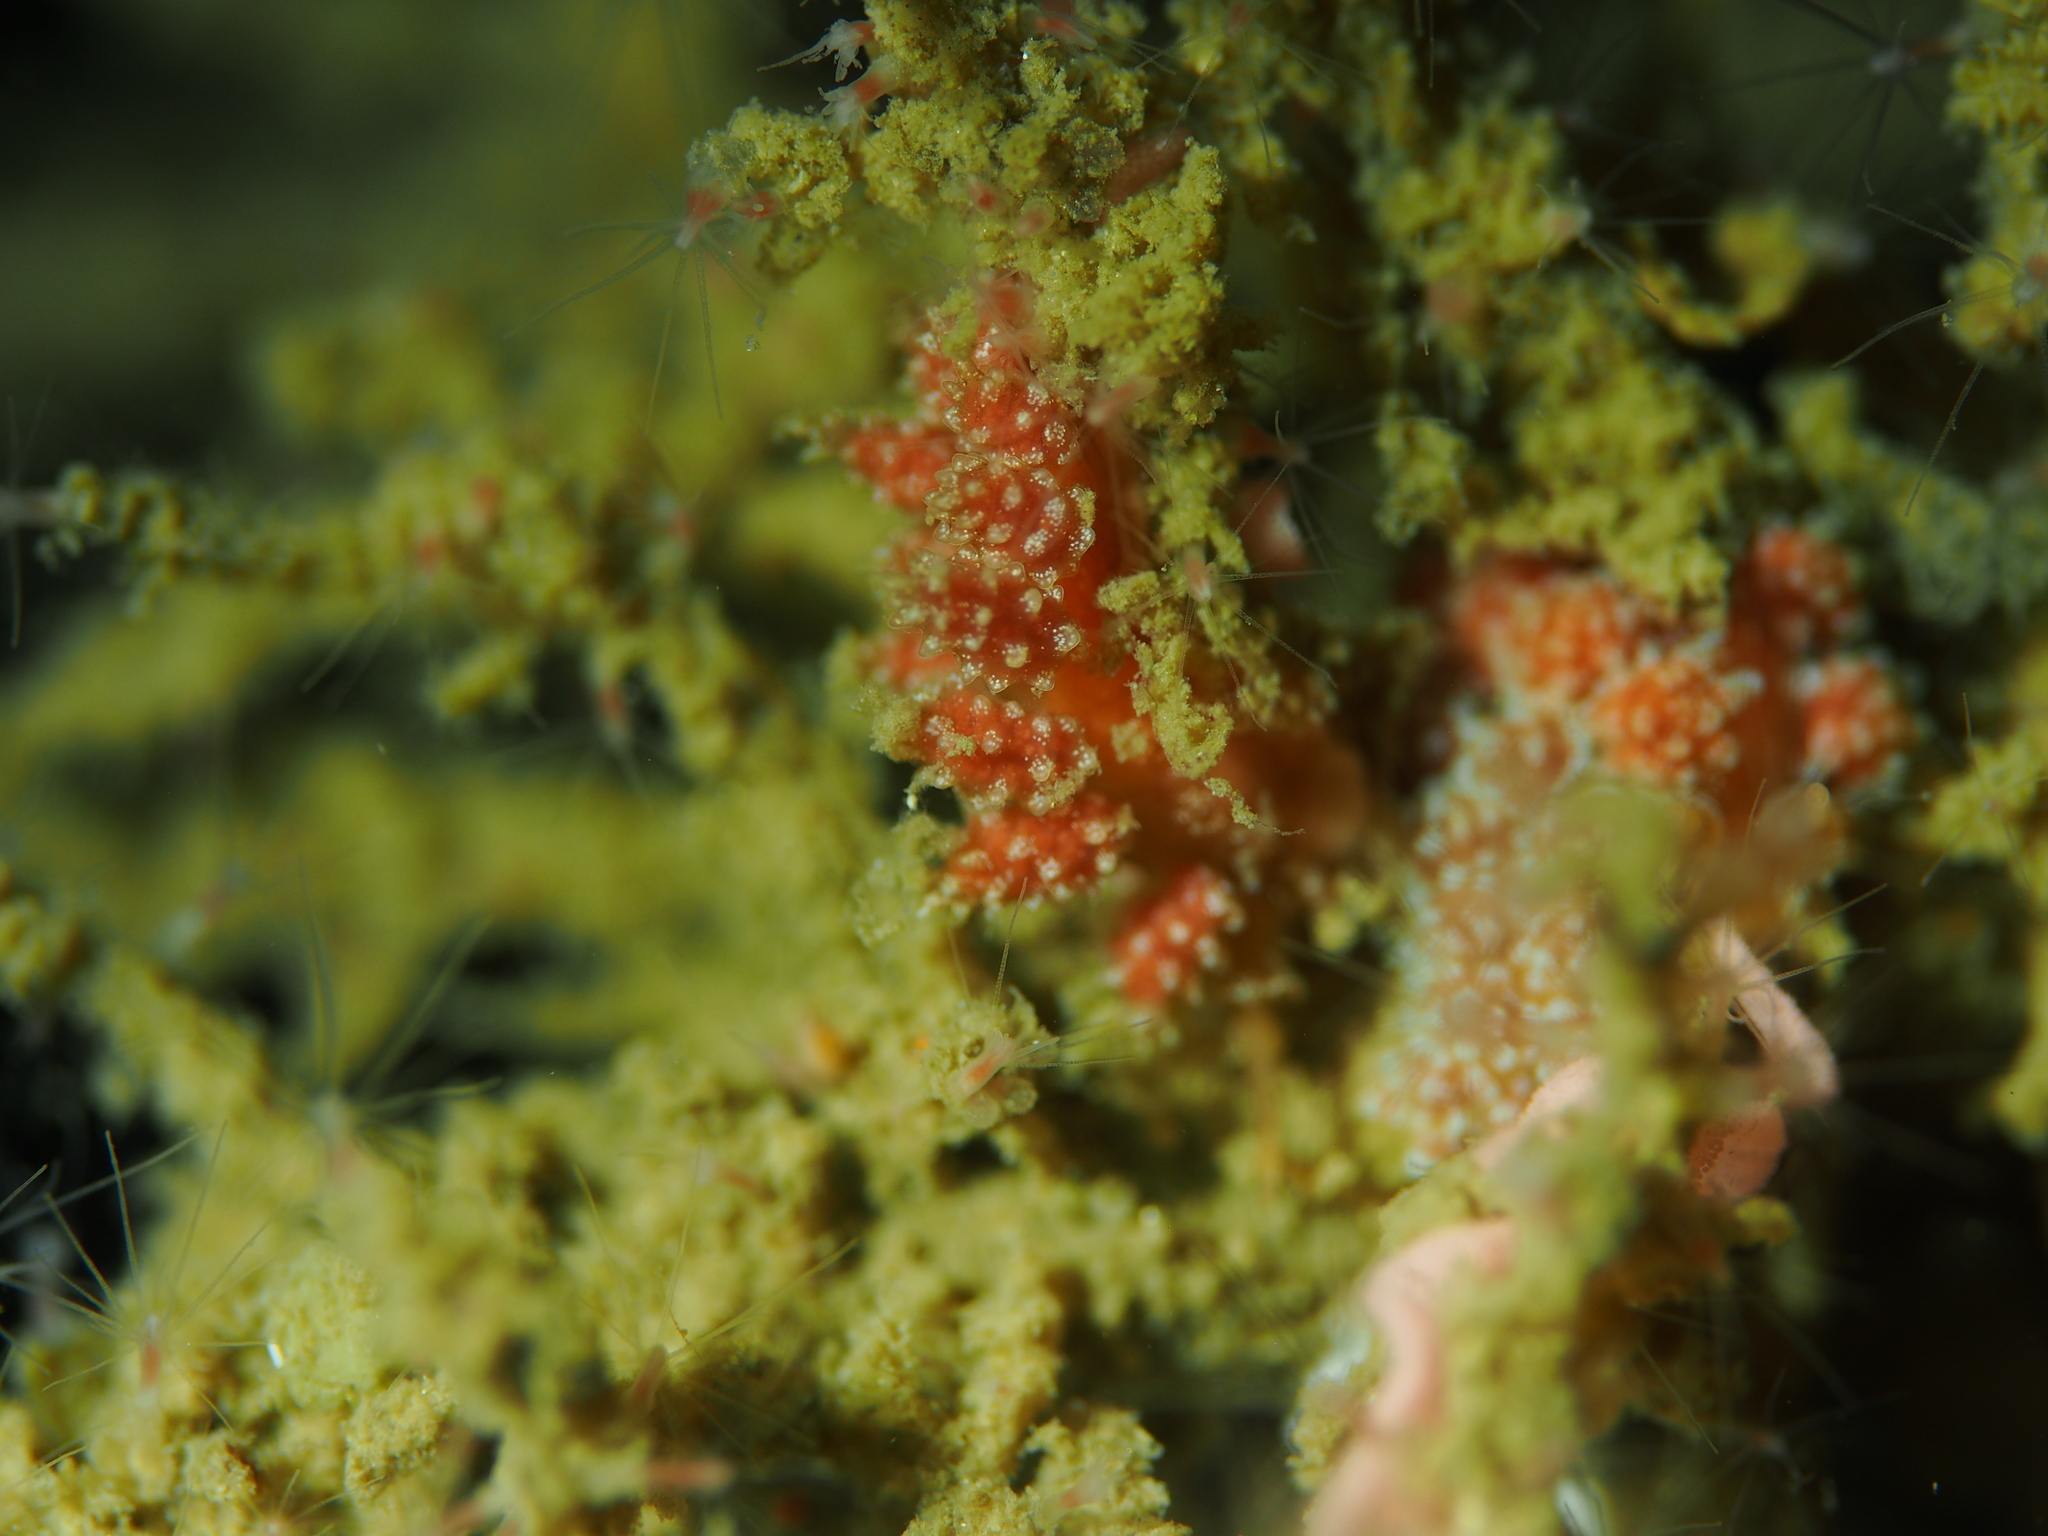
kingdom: Animalia
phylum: Mollusca
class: Gastropoda
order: Nudibranchia
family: Dotidae
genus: Doto
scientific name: Doto fragilis
